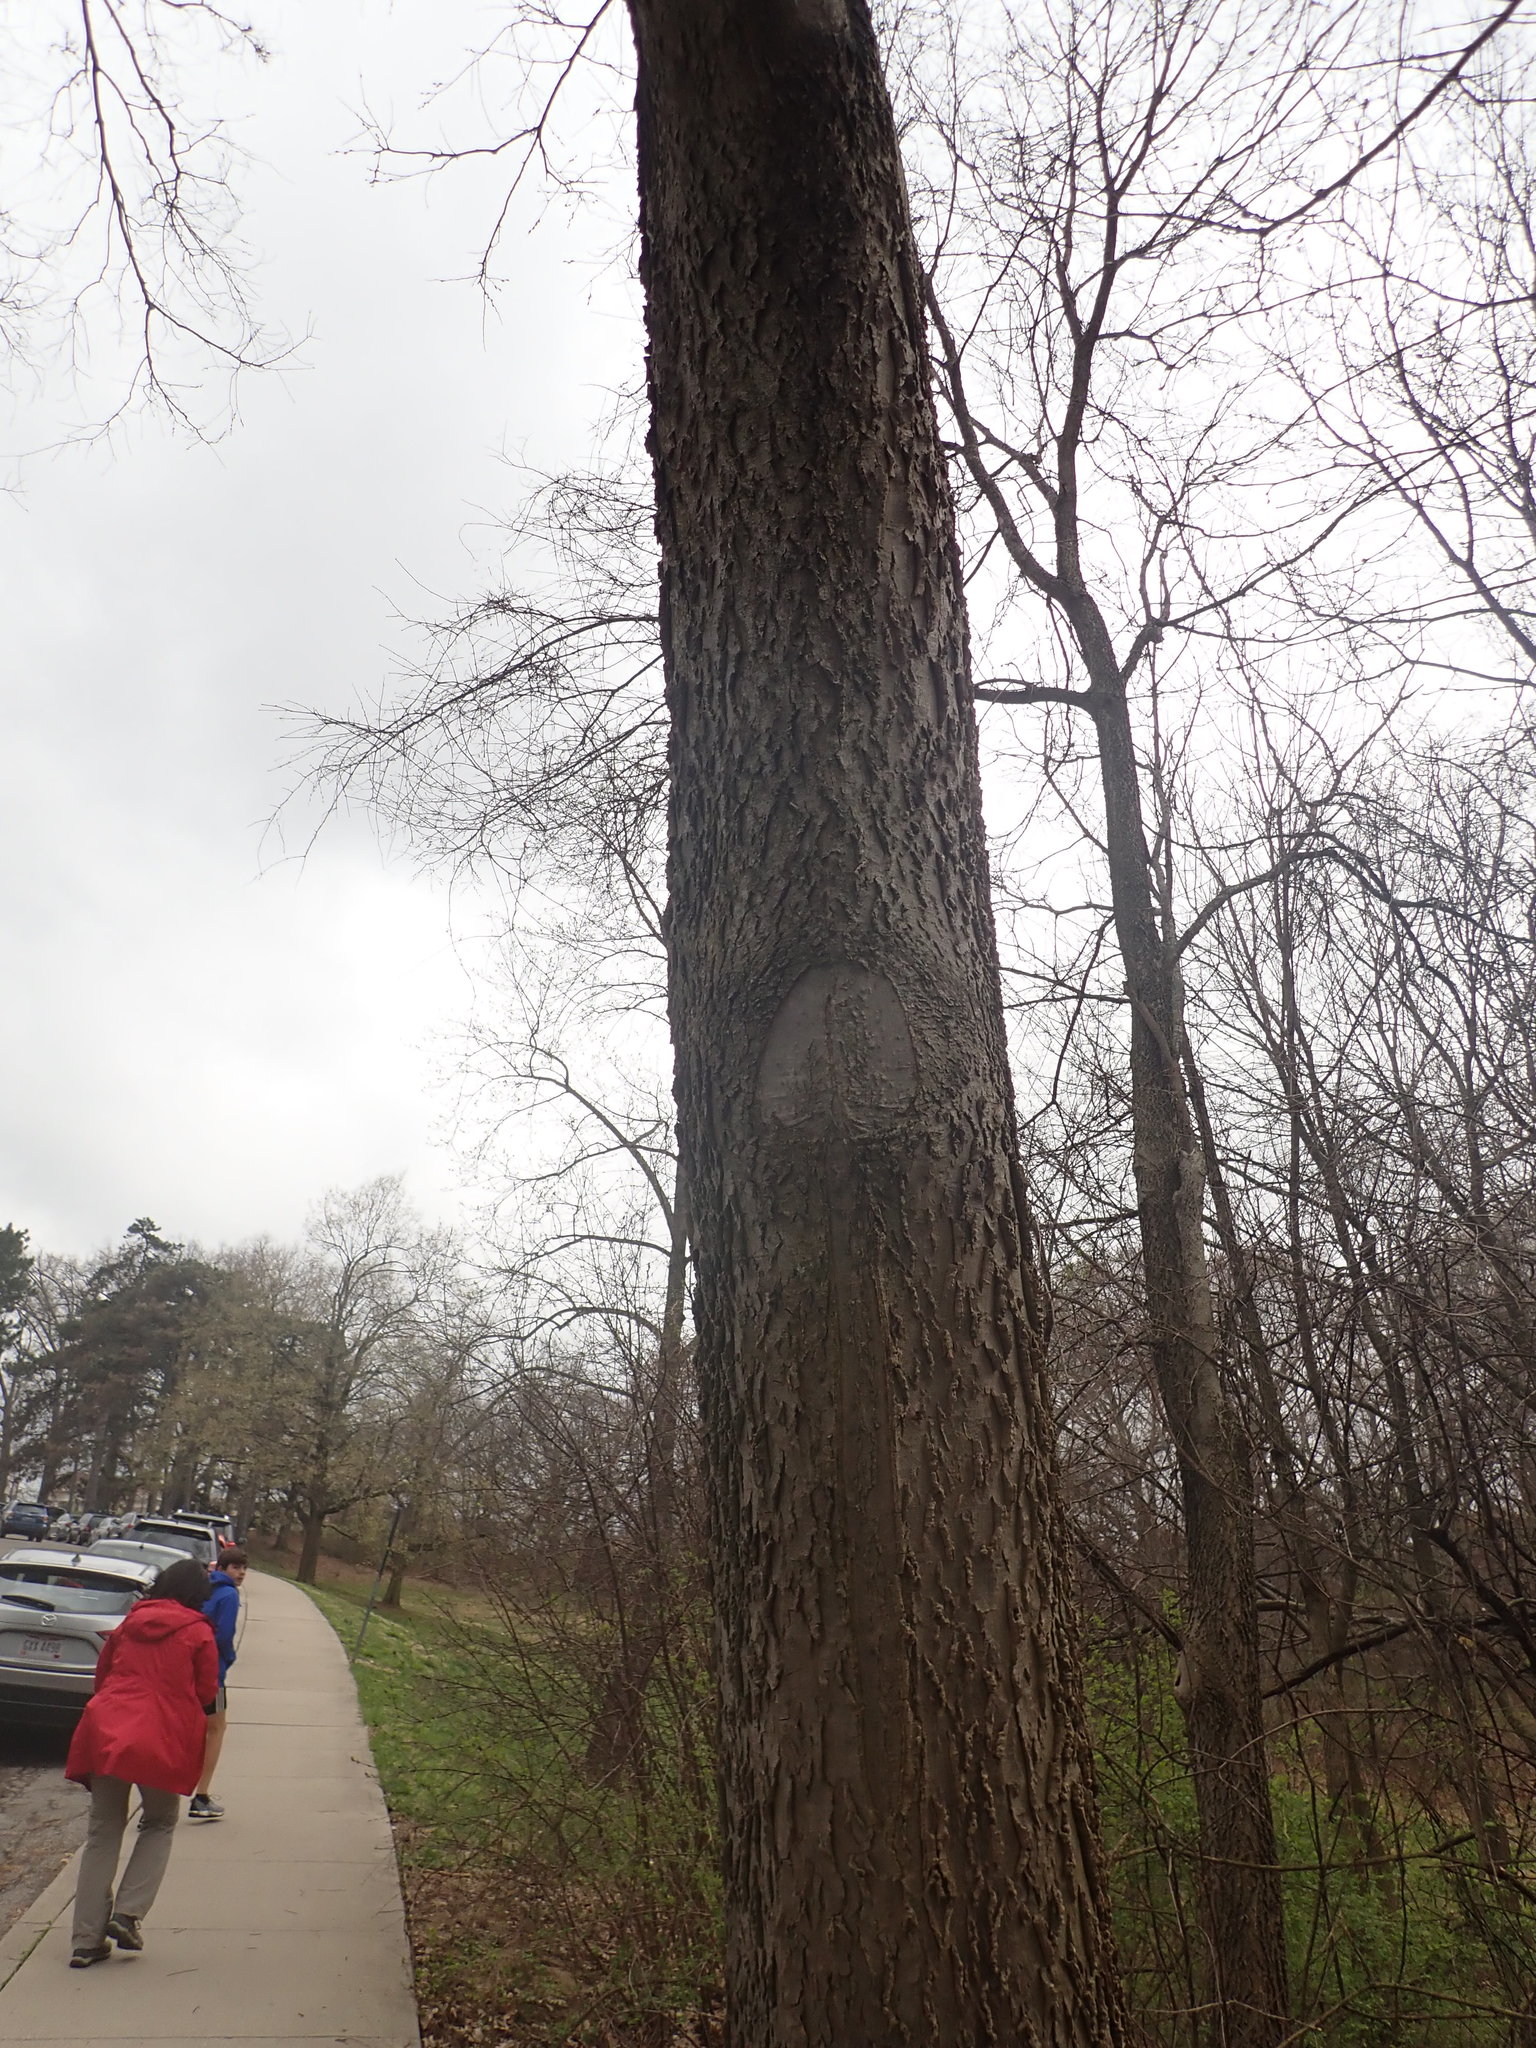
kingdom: Plantae
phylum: Tracheophyta
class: Magnoliopsida
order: Rosales
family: Cannabaceae
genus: Celtis
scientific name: Celtis occidentalis
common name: Common hackberry
